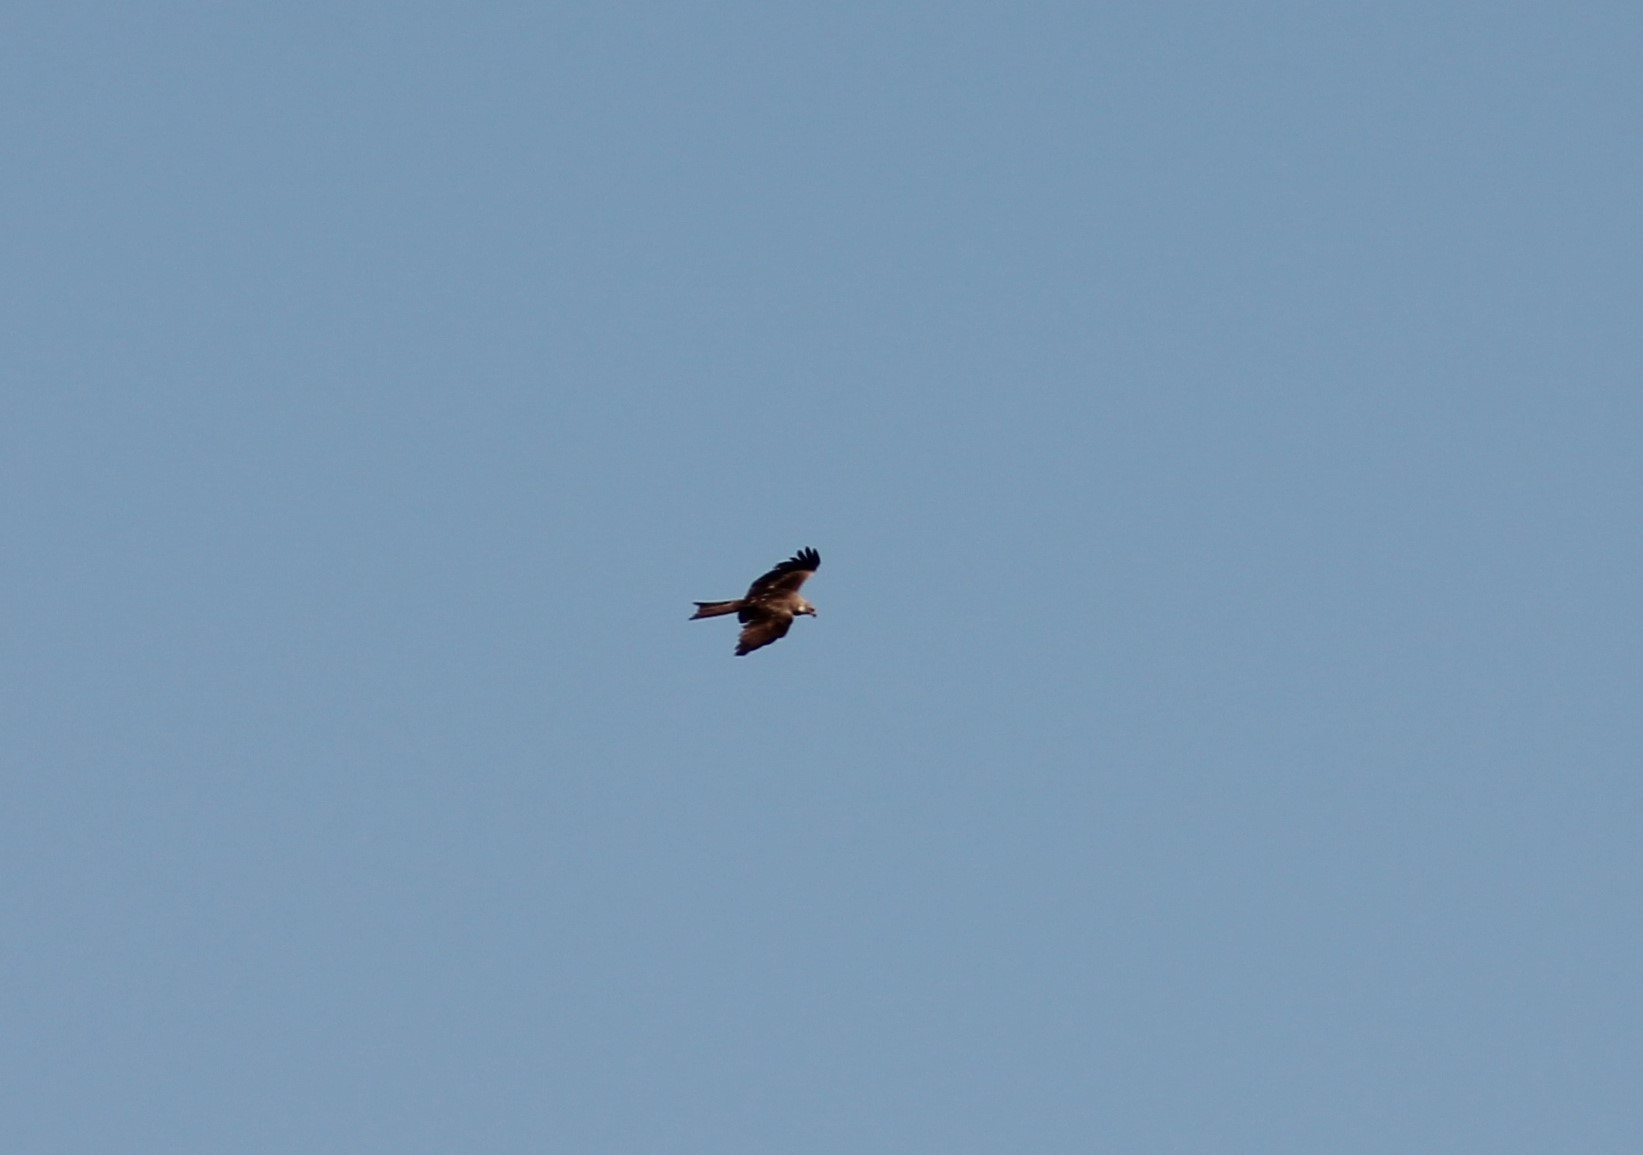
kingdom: Animalia
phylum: Chordata
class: Aves
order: Accipitriformes
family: Accipitridae
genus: Milvus
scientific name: Milvus migrans
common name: Black kite
